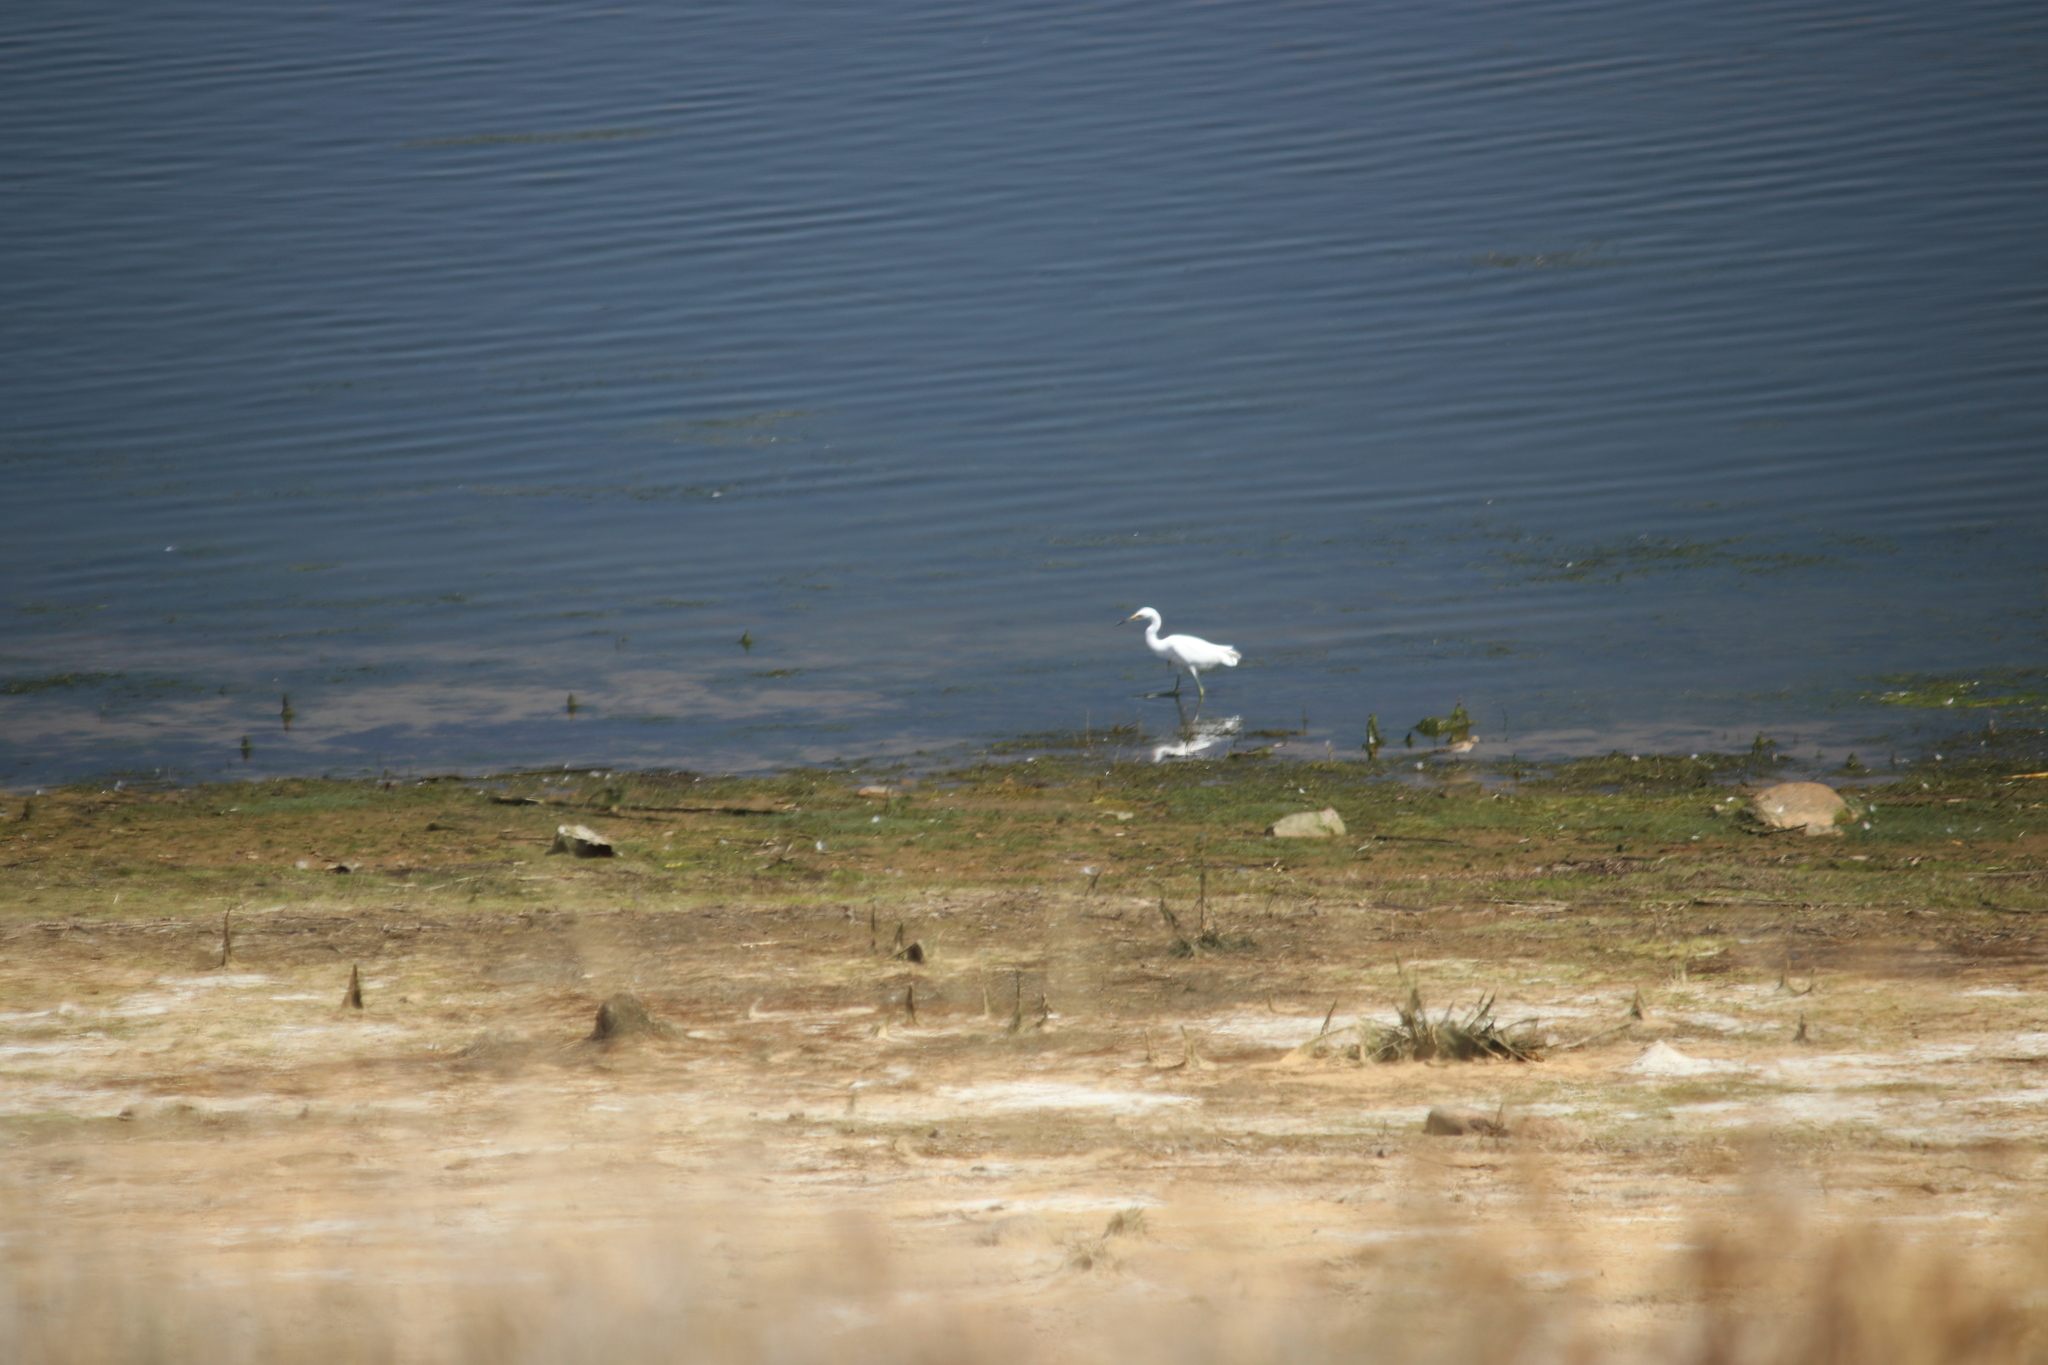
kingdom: Animalia
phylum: Chordata
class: Aves
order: Pelecaniformes
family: Ardeidae
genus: Egretta
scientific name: Egretta thula
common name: Snowy egret
